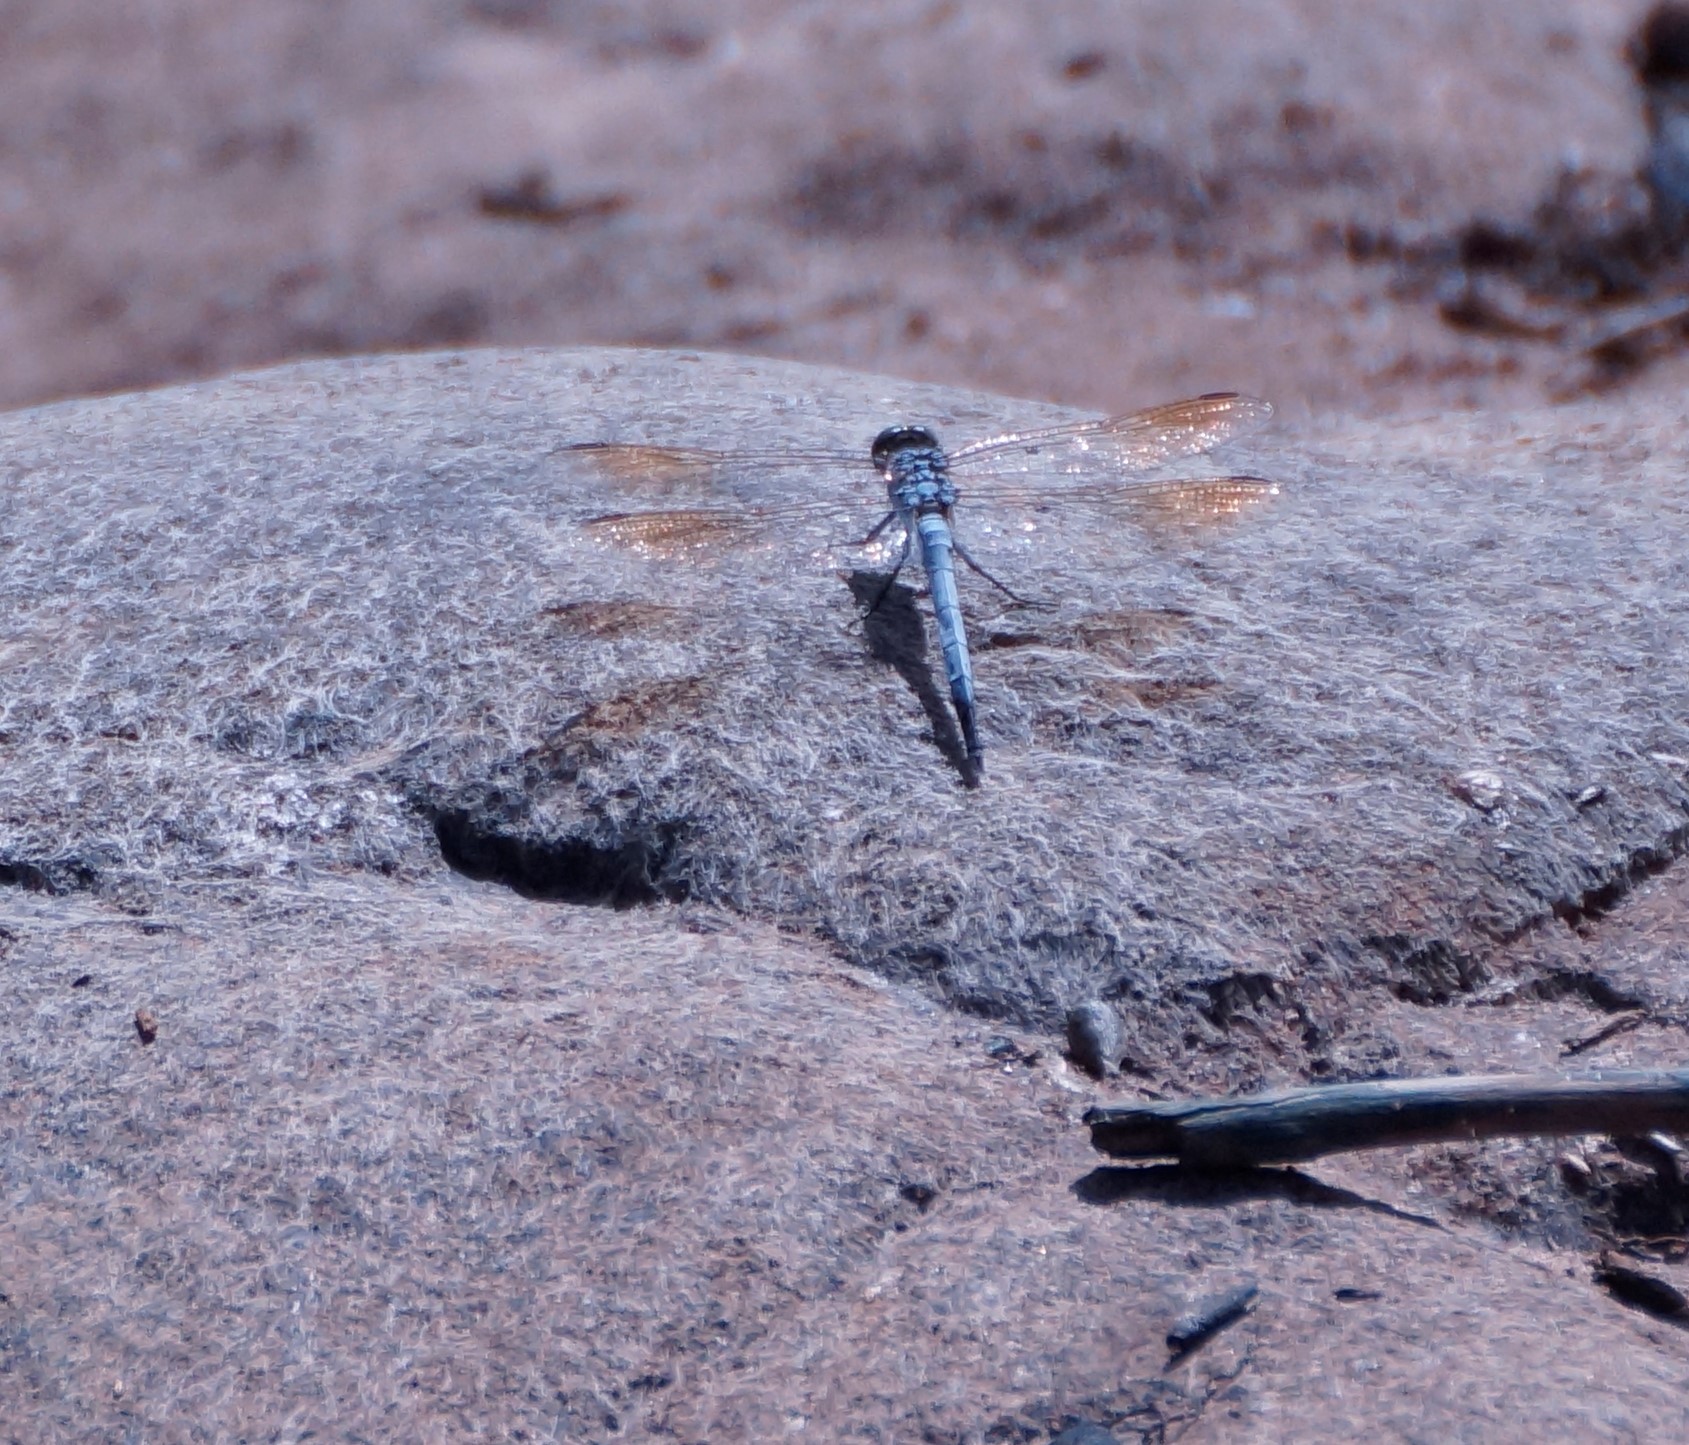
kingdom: Animalia
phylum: Arthropoda
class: Insecta
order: Odonata
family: Libellulidae
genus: Orthetrum
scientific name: Orthetrum caledonicum
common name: Blue skimmer
